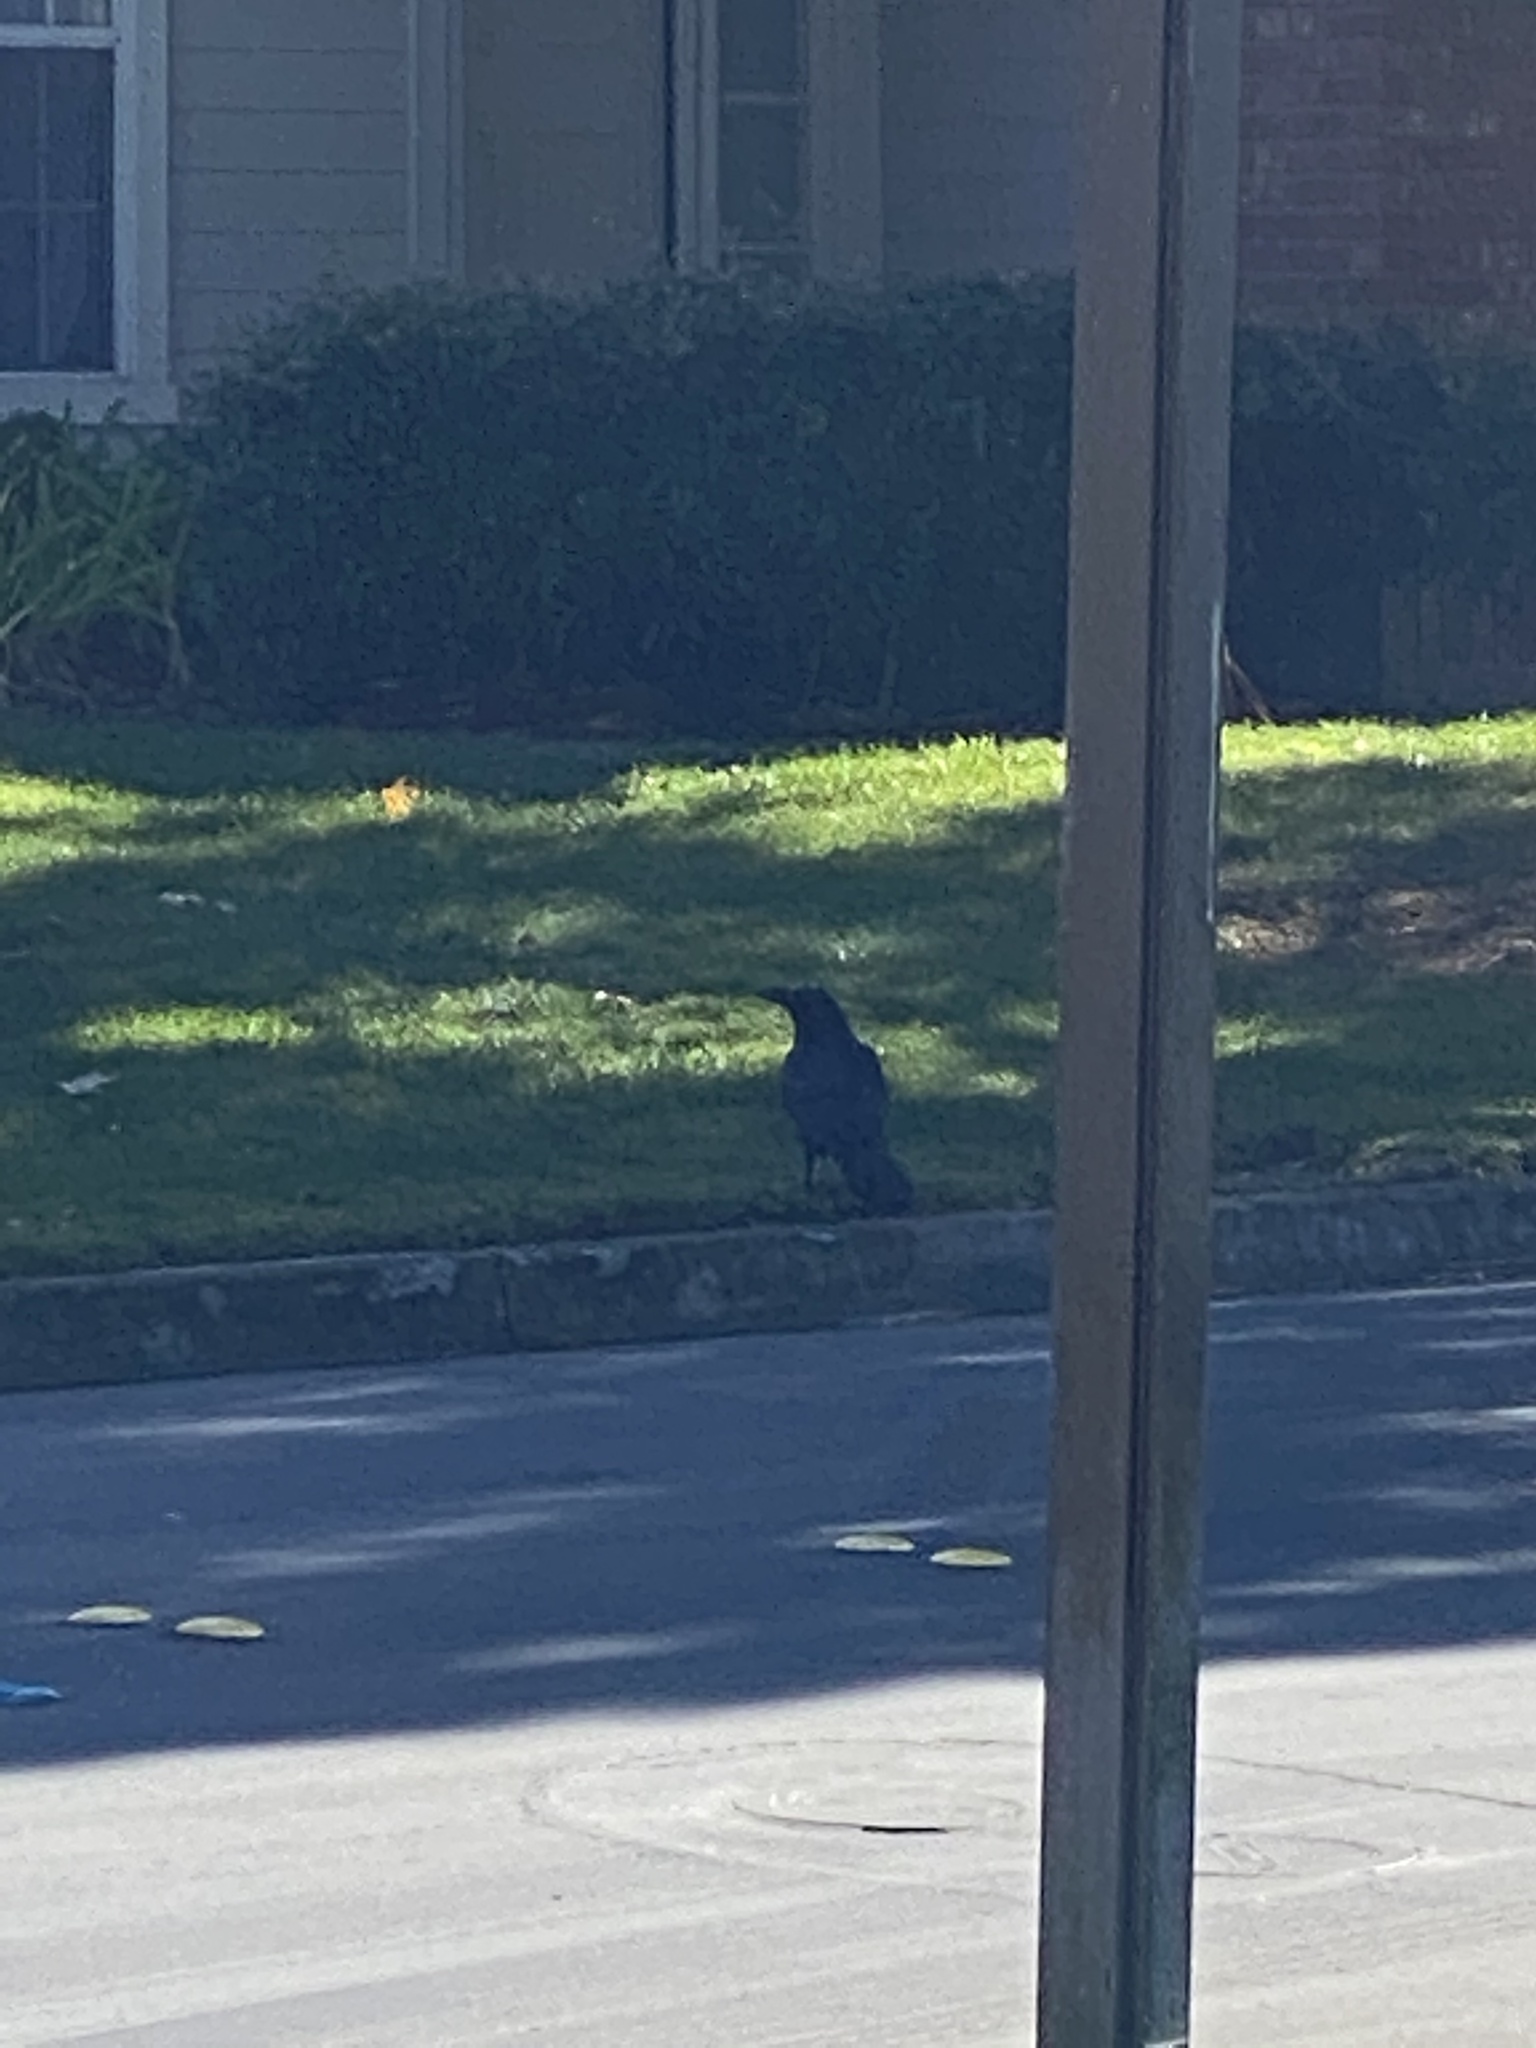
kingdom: Animalia
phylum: Chordata
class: Aves
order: Passeriformes
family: Corvidae
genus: Corvus
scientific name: Corvus corax
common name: Common raven
